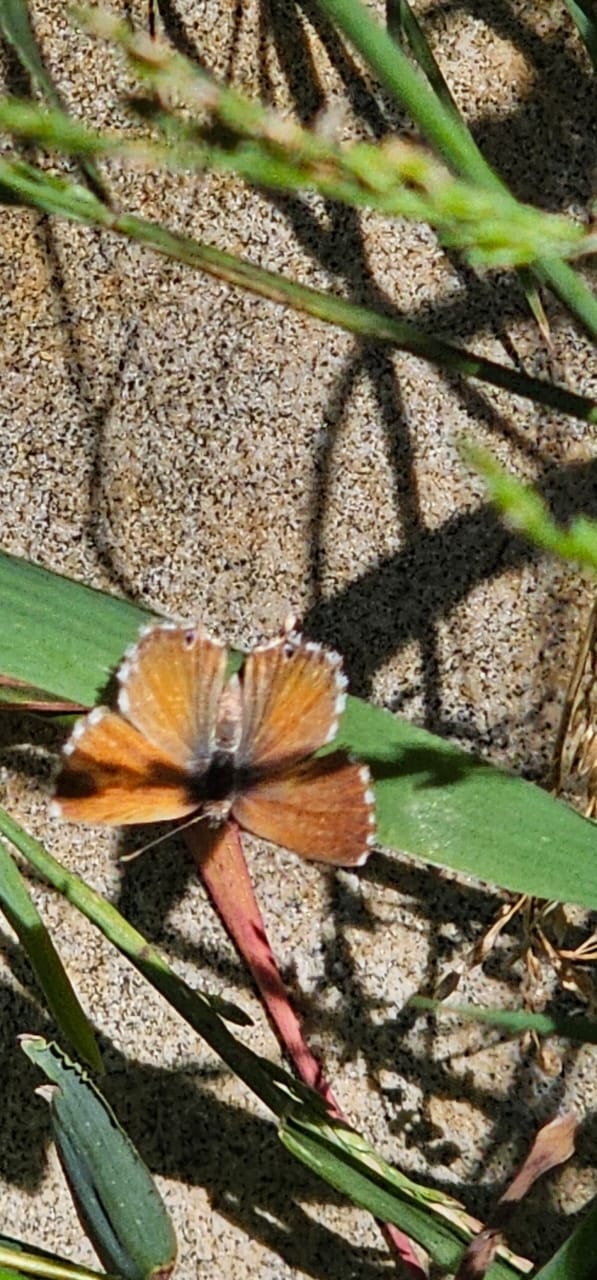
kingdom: Animalia
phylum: Arthropoda
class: Insecta
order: Lepidoptera
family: Lycaenidae
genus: Cacyreus
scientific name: Cacyreus fracta
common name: Water bronze
